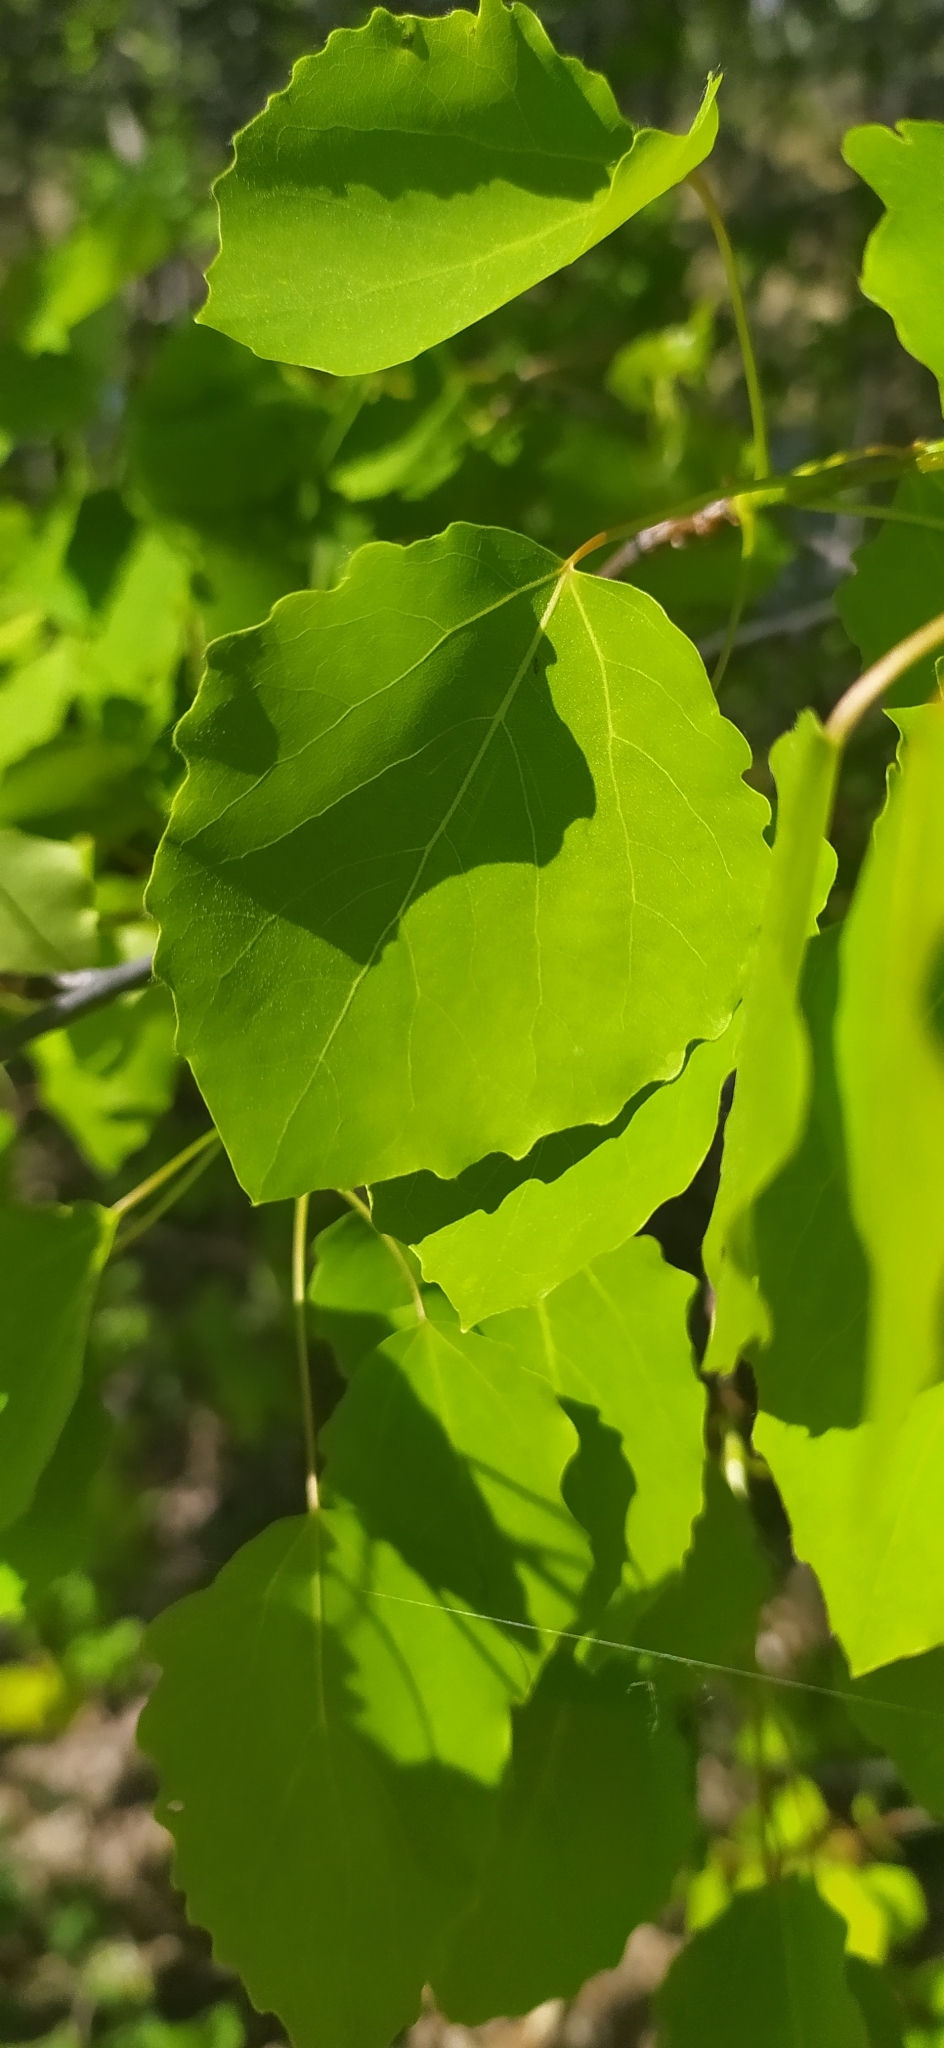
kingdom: Plantae
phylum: Tracheophyta
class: Magnoliopsida
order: Malpighiales
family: Salicaceae
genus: Populus
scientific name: Populus tremula
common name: European aspen
